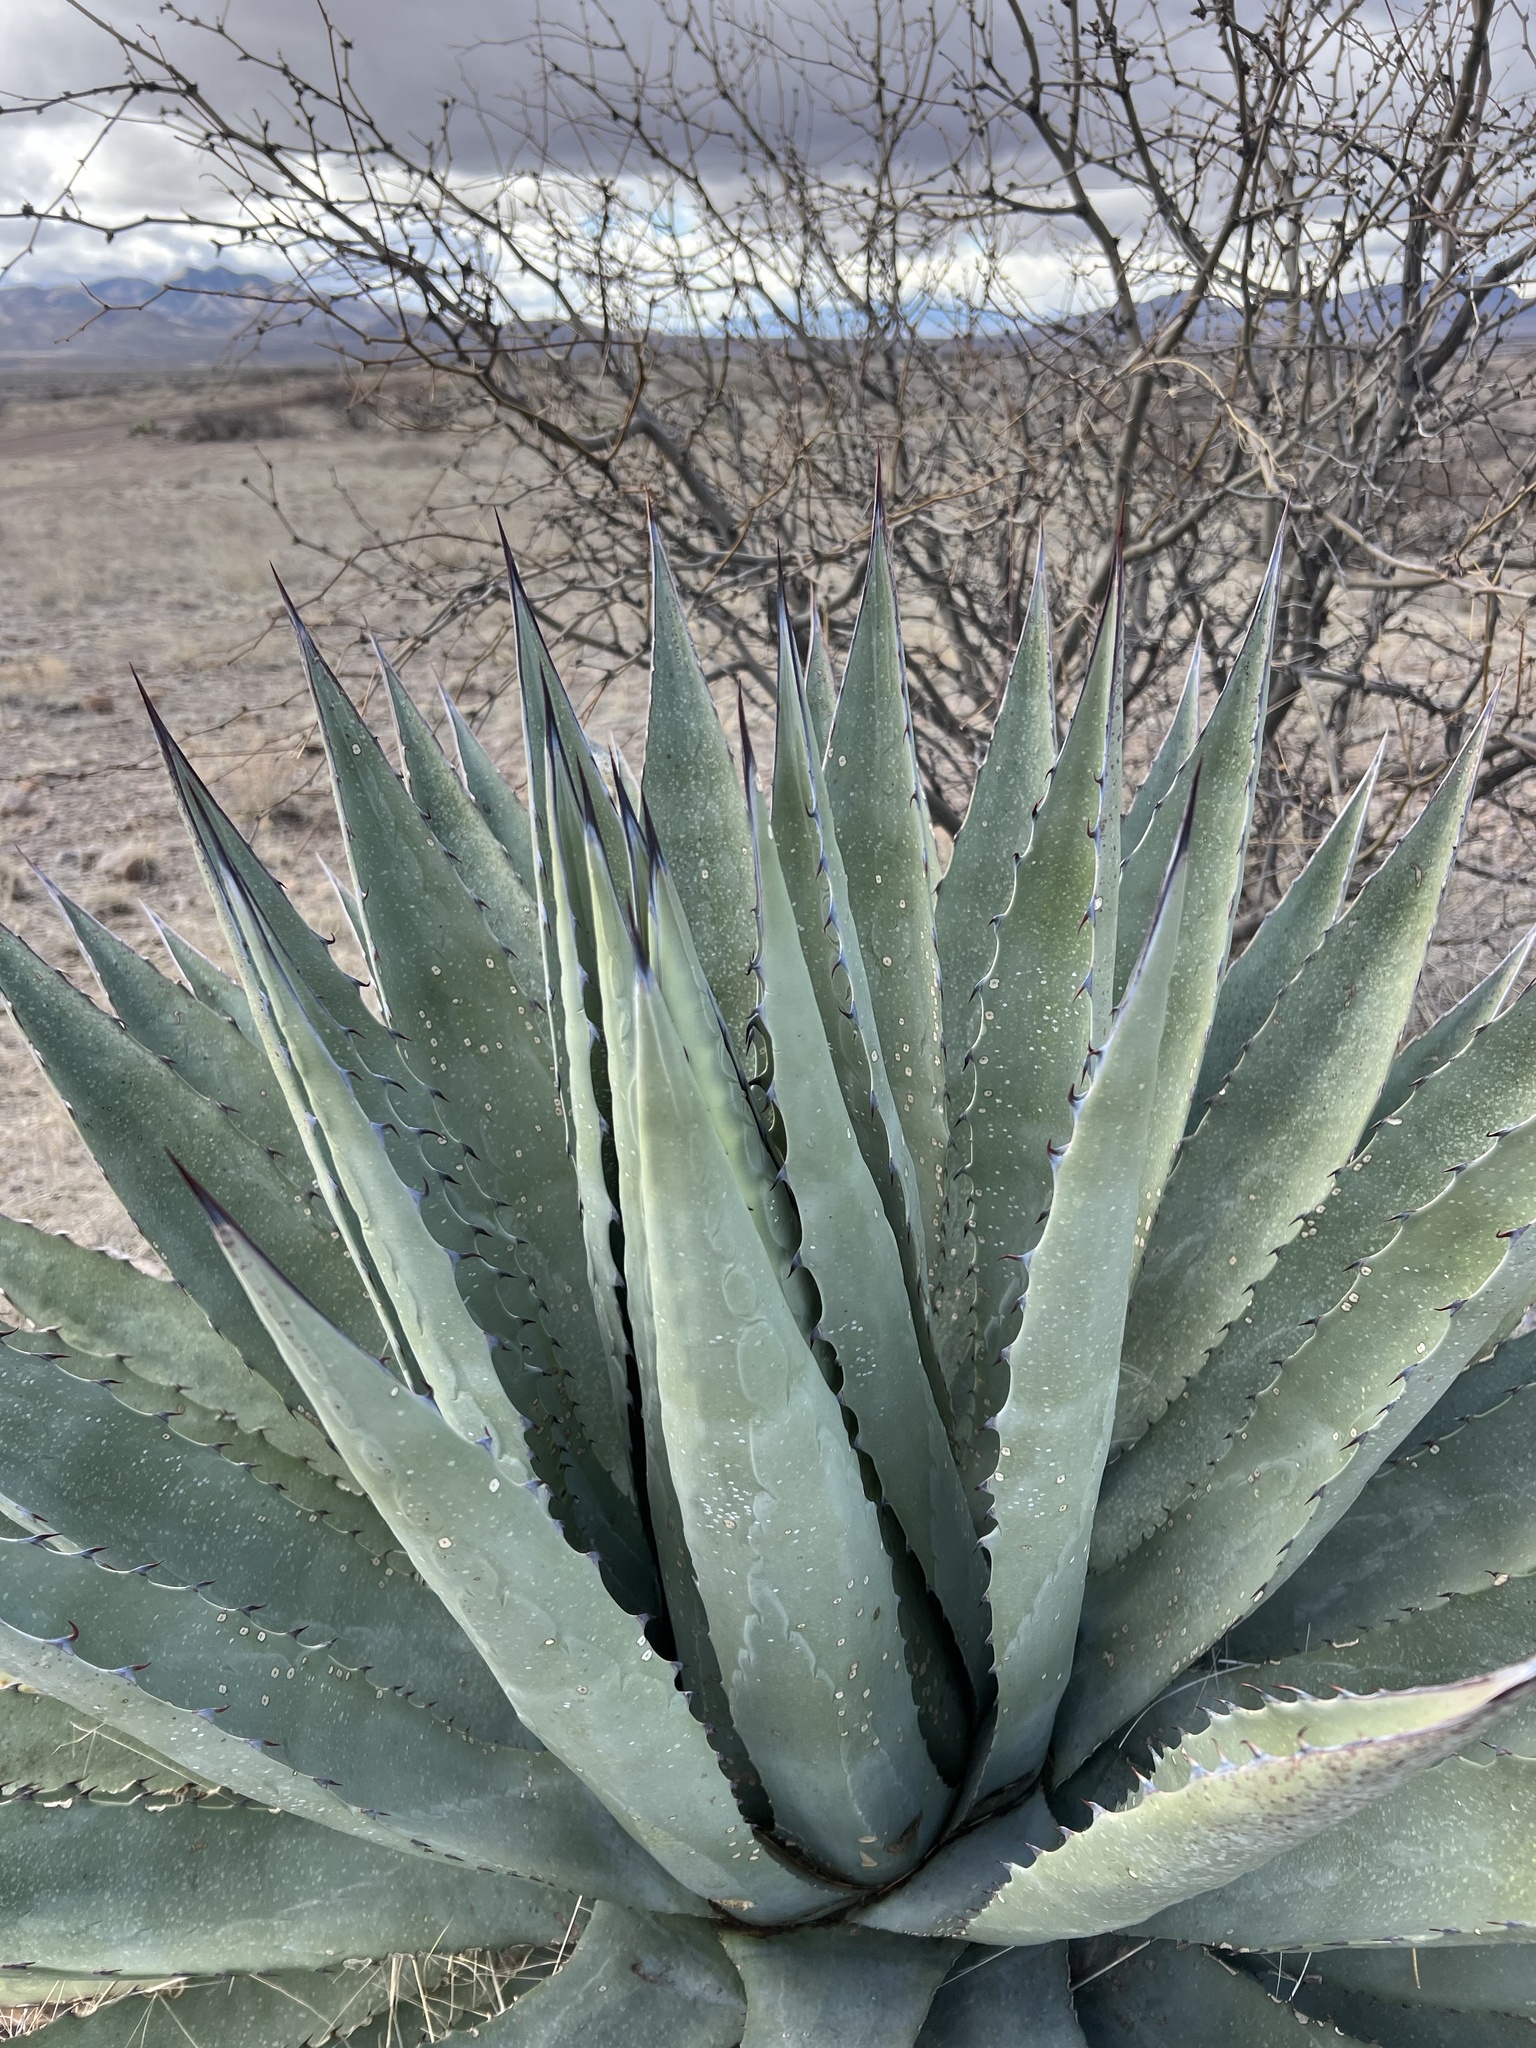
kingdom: Plantae
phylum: Tracheophyta
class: Liliopsida
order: Asparagales
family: Asparagaceae
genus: Agave
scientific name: Agave palmeri
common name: Palmer agave
